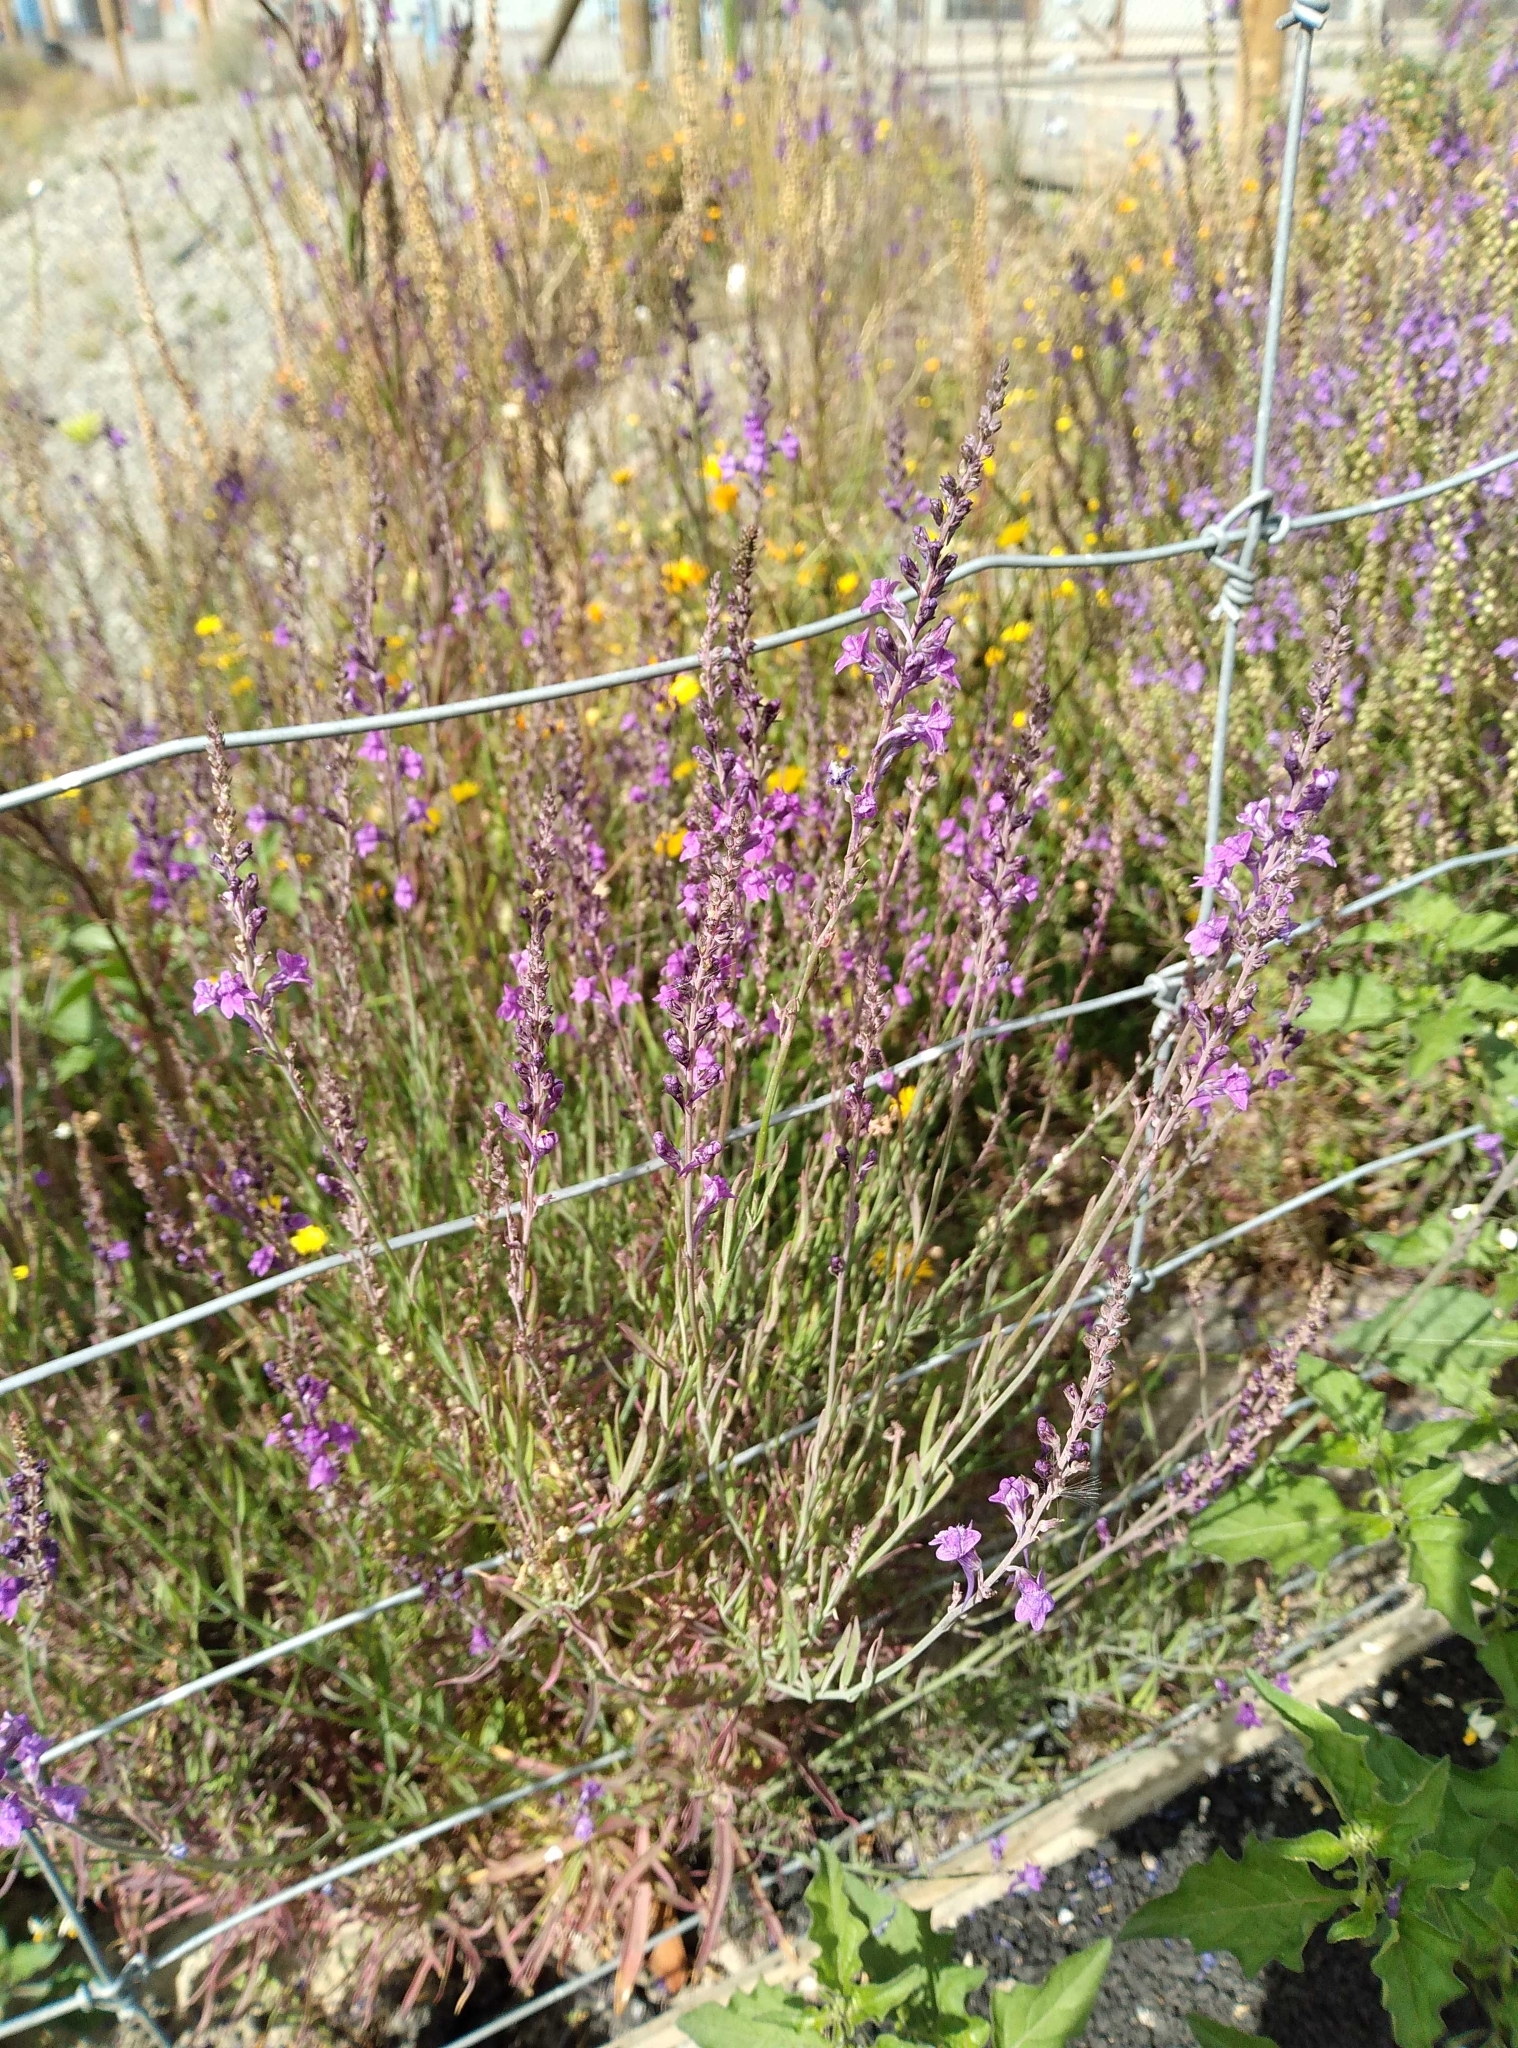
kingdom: Plantae
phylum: Tracheophyta
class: Magnoliopsida
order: Lamiales
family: Plantaginaceae
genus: Linaria
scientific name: Linaria purpurea
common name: Purple toadflax
